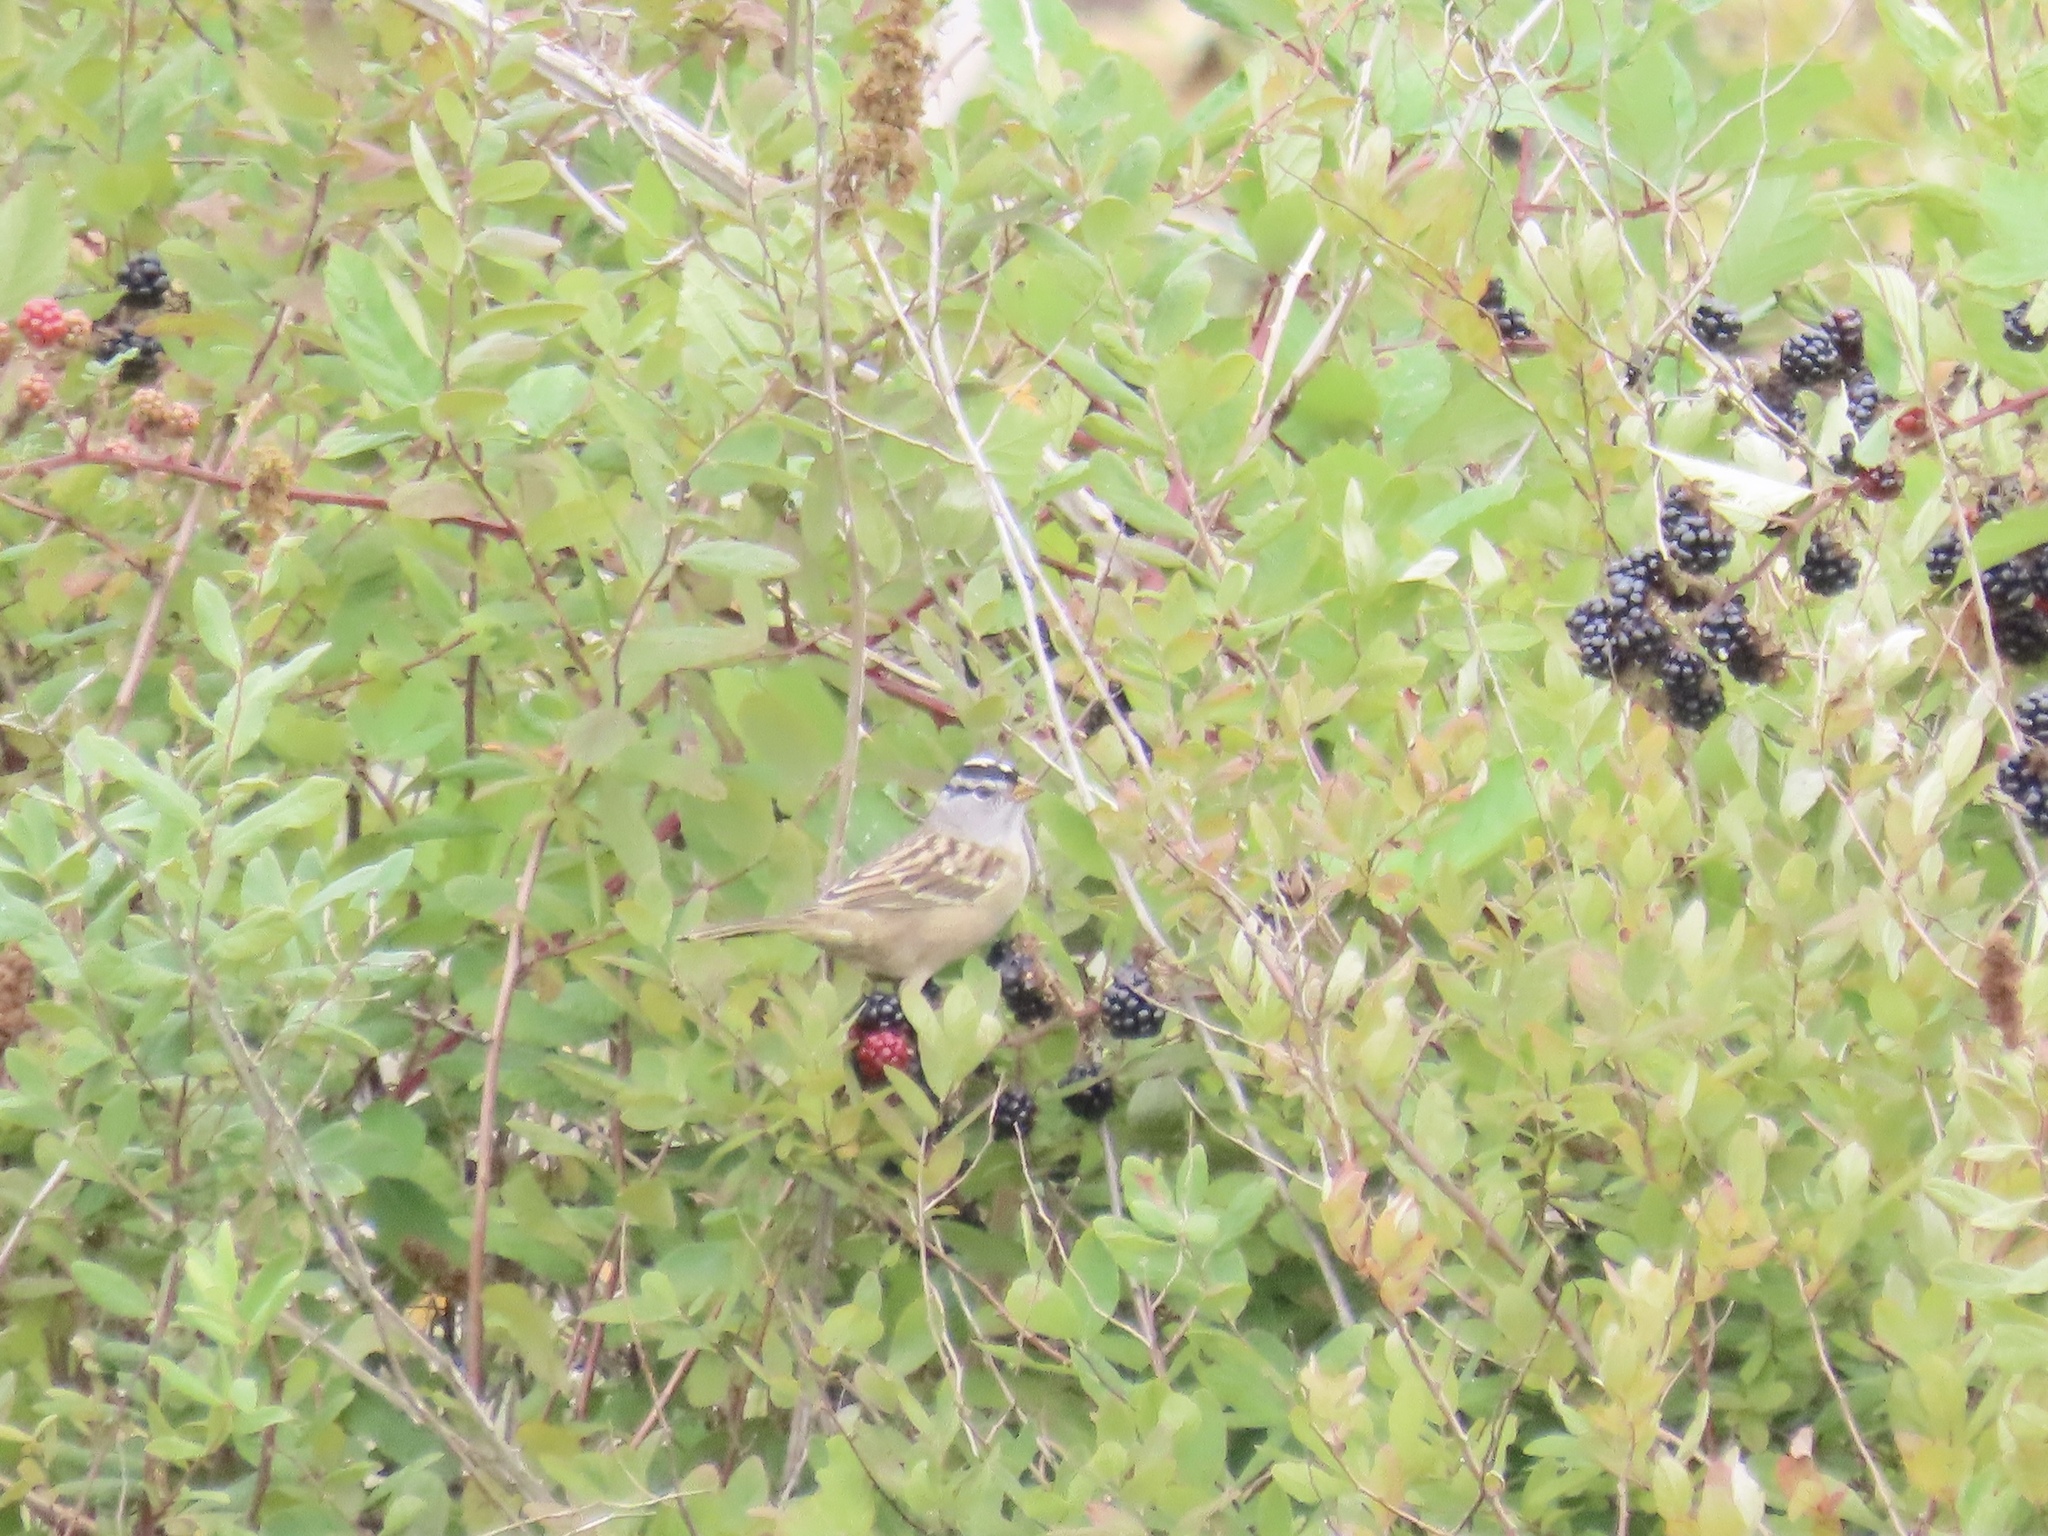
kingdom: Animalia
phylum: Chordata
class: Aves
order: Passeriformes
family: Passerellidae
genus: Zonotrichia
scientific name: Zonotrichia leucophrys
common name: White-crowned sparrow
